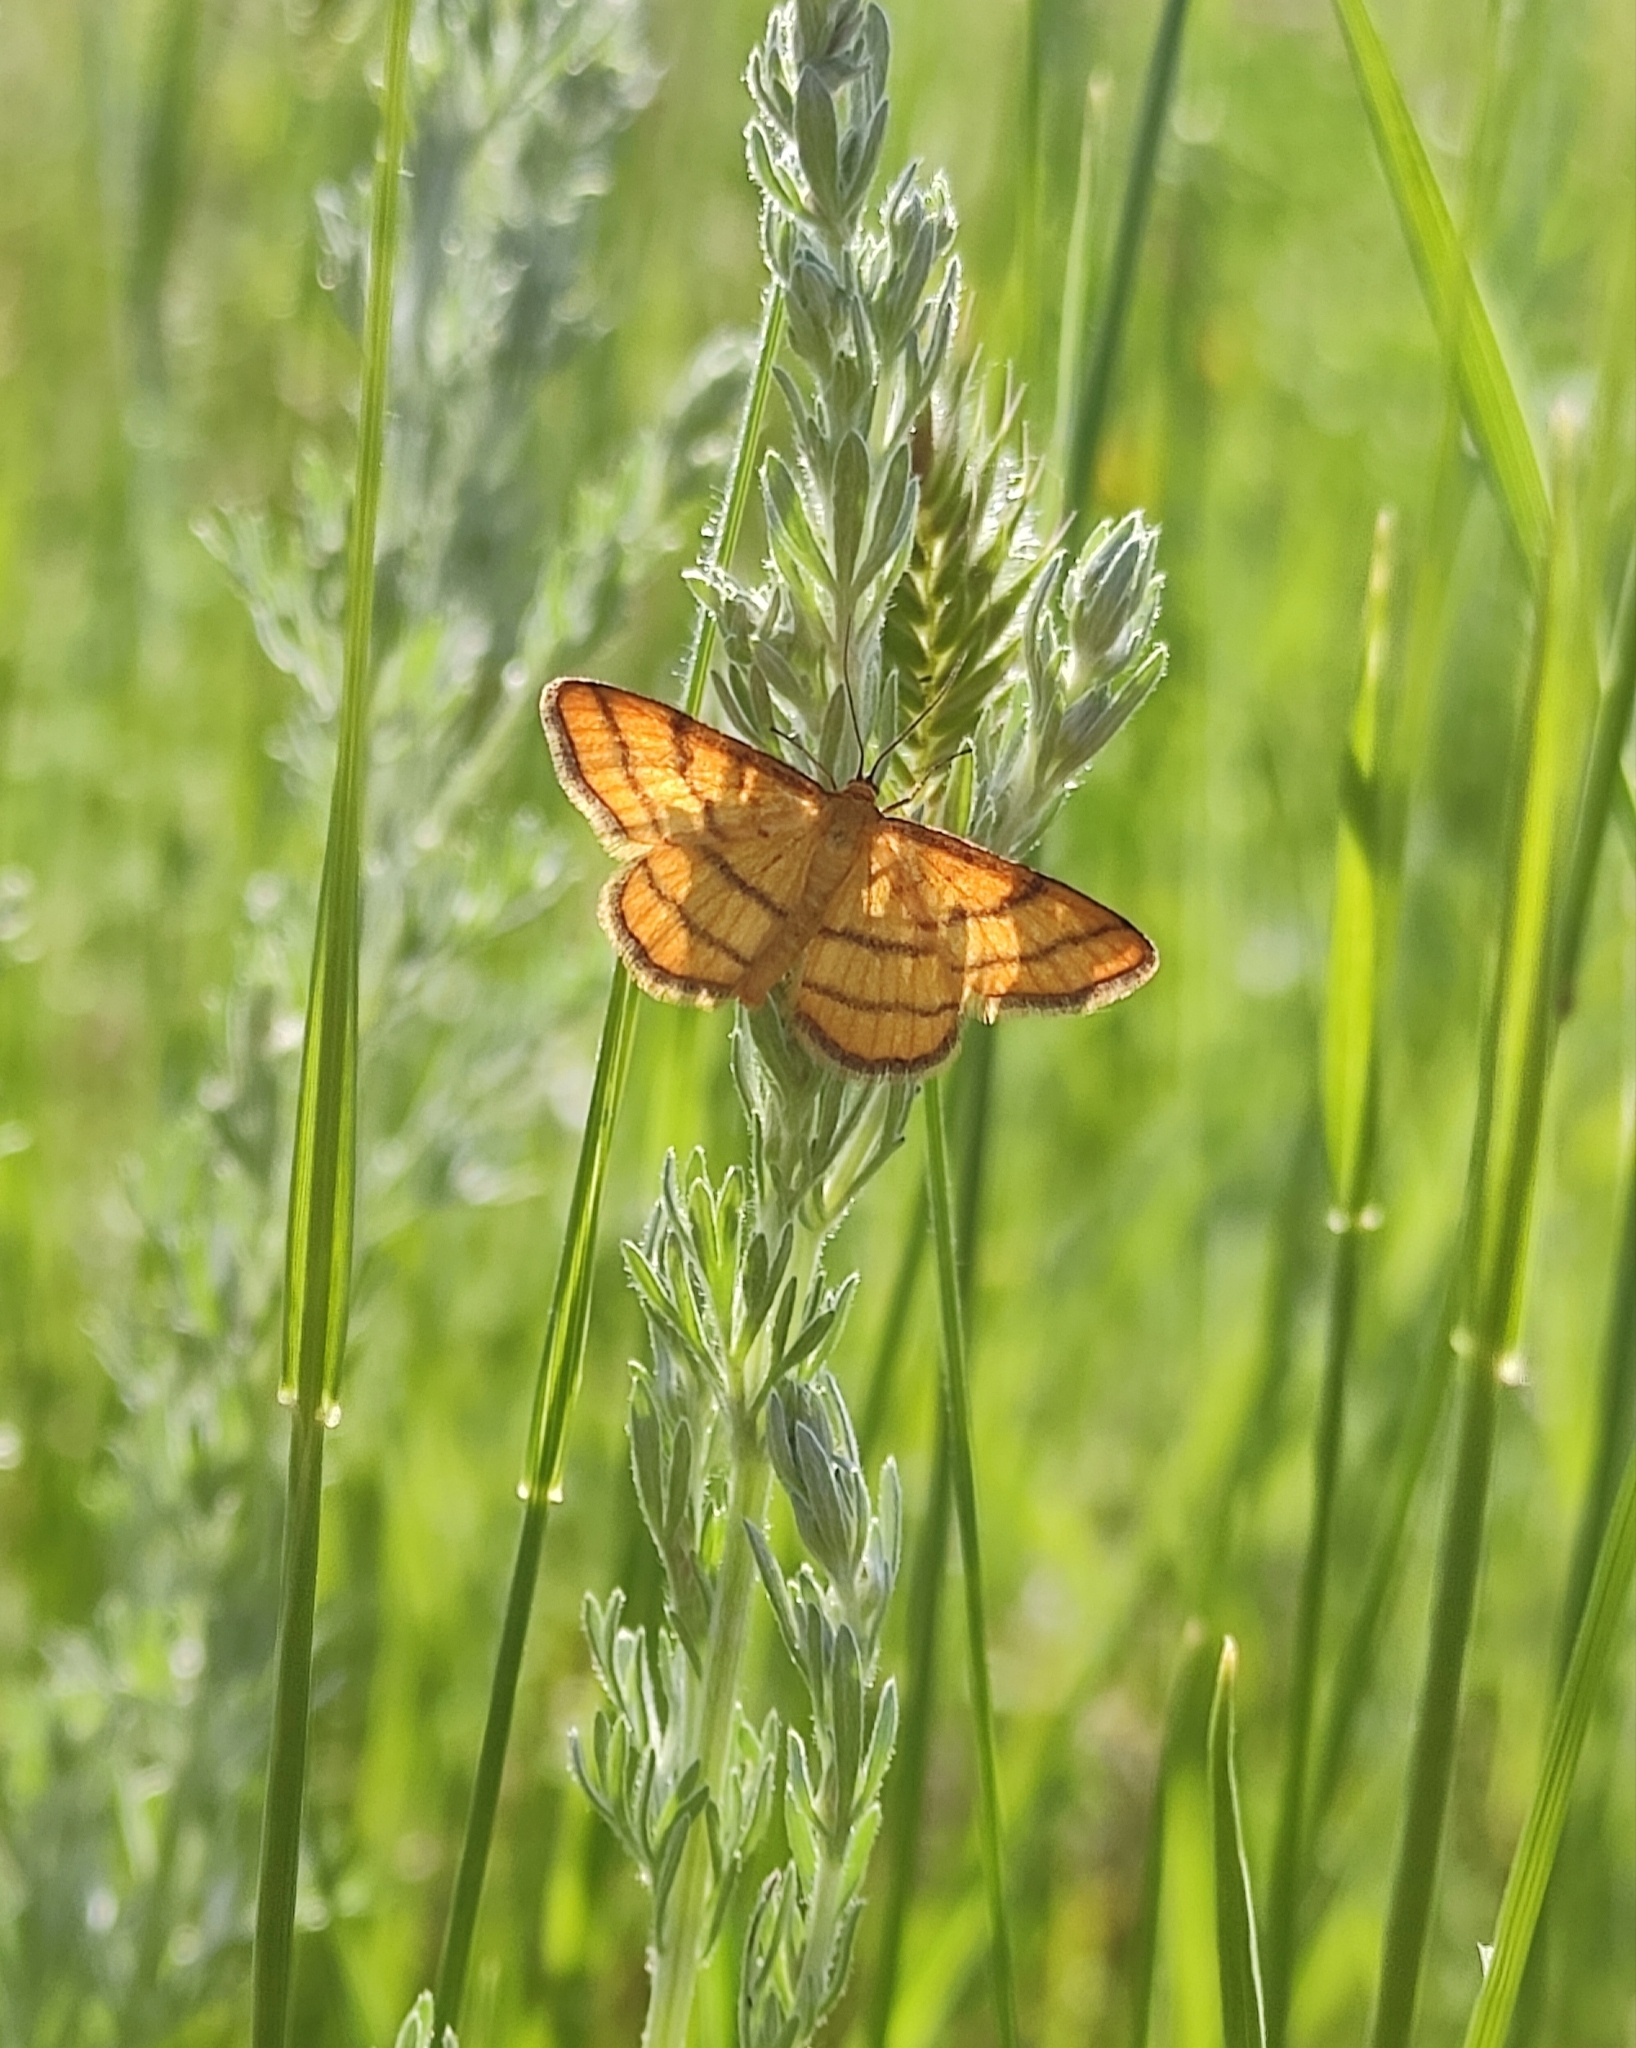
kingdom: Animalia
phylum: Arthropoda
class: Insecta
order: Lepidoptera
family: Geometridae
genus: Idaea
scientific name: Idaea aureolaria
